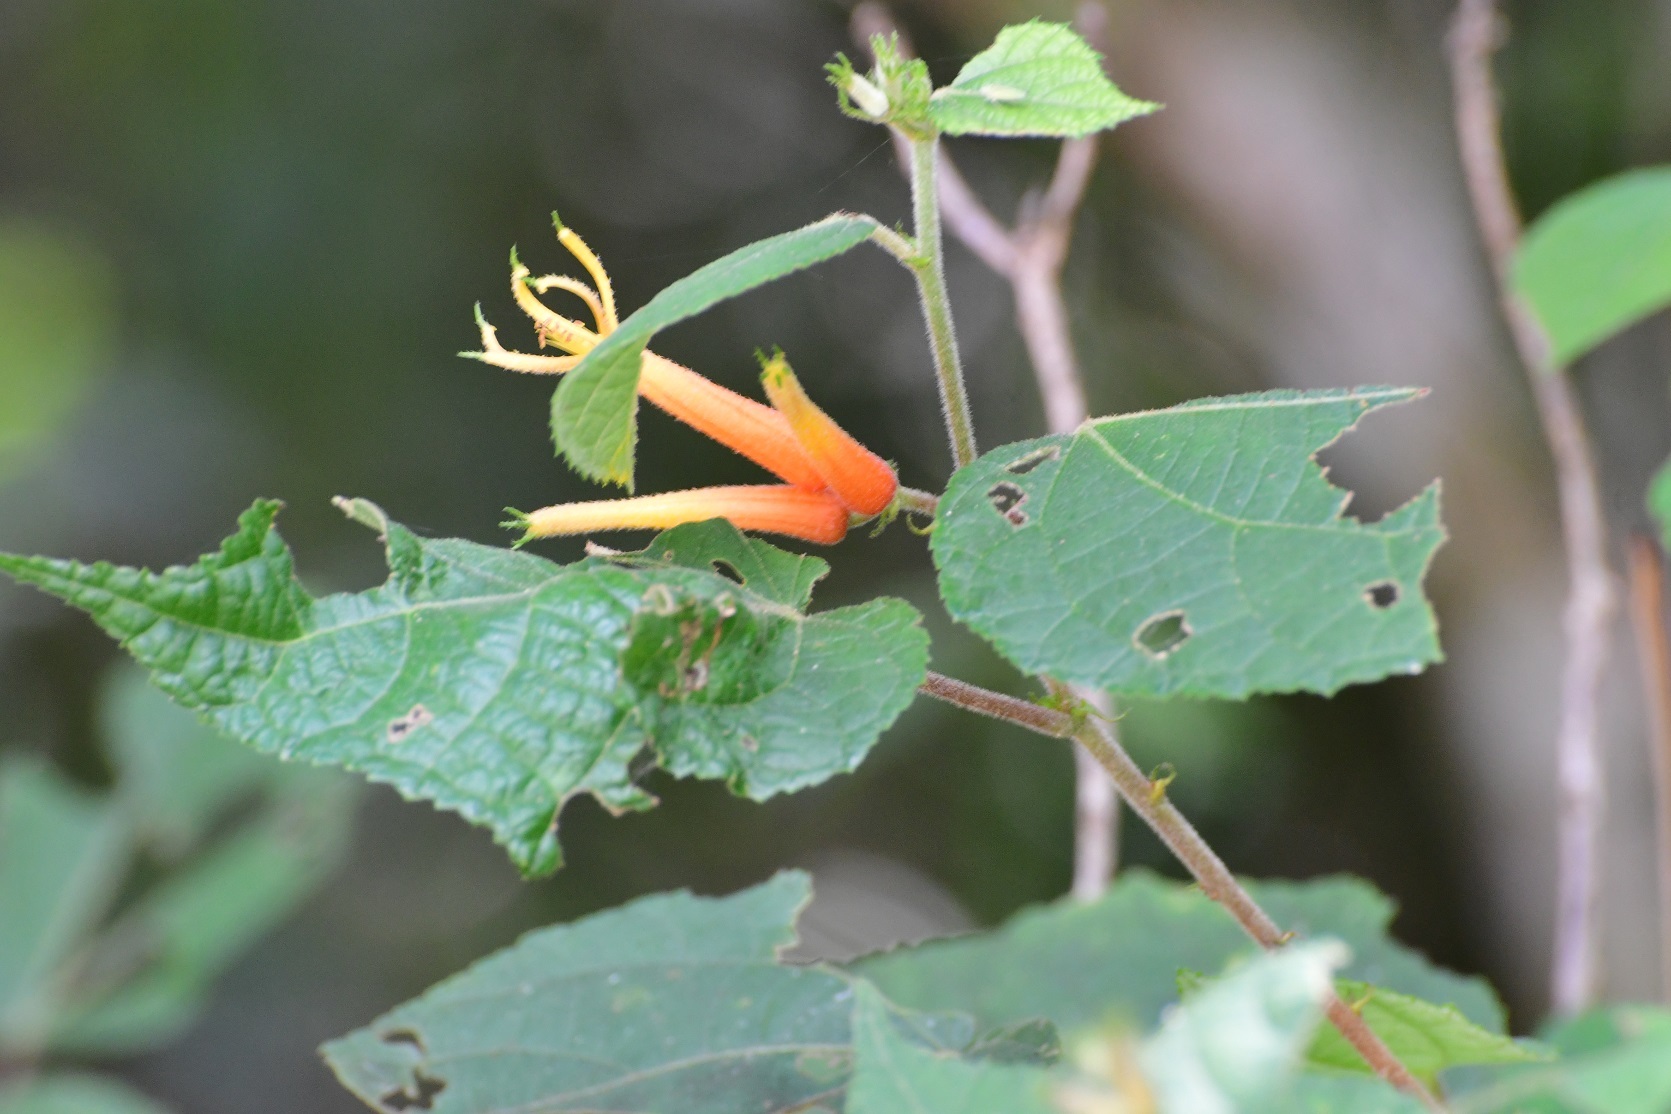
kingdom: Plantae
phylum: Tracheophyta
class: Magnoliopsida
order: Malvales
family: Malvaceae
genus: Triumfetta
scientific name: Triumfetta speciosa
